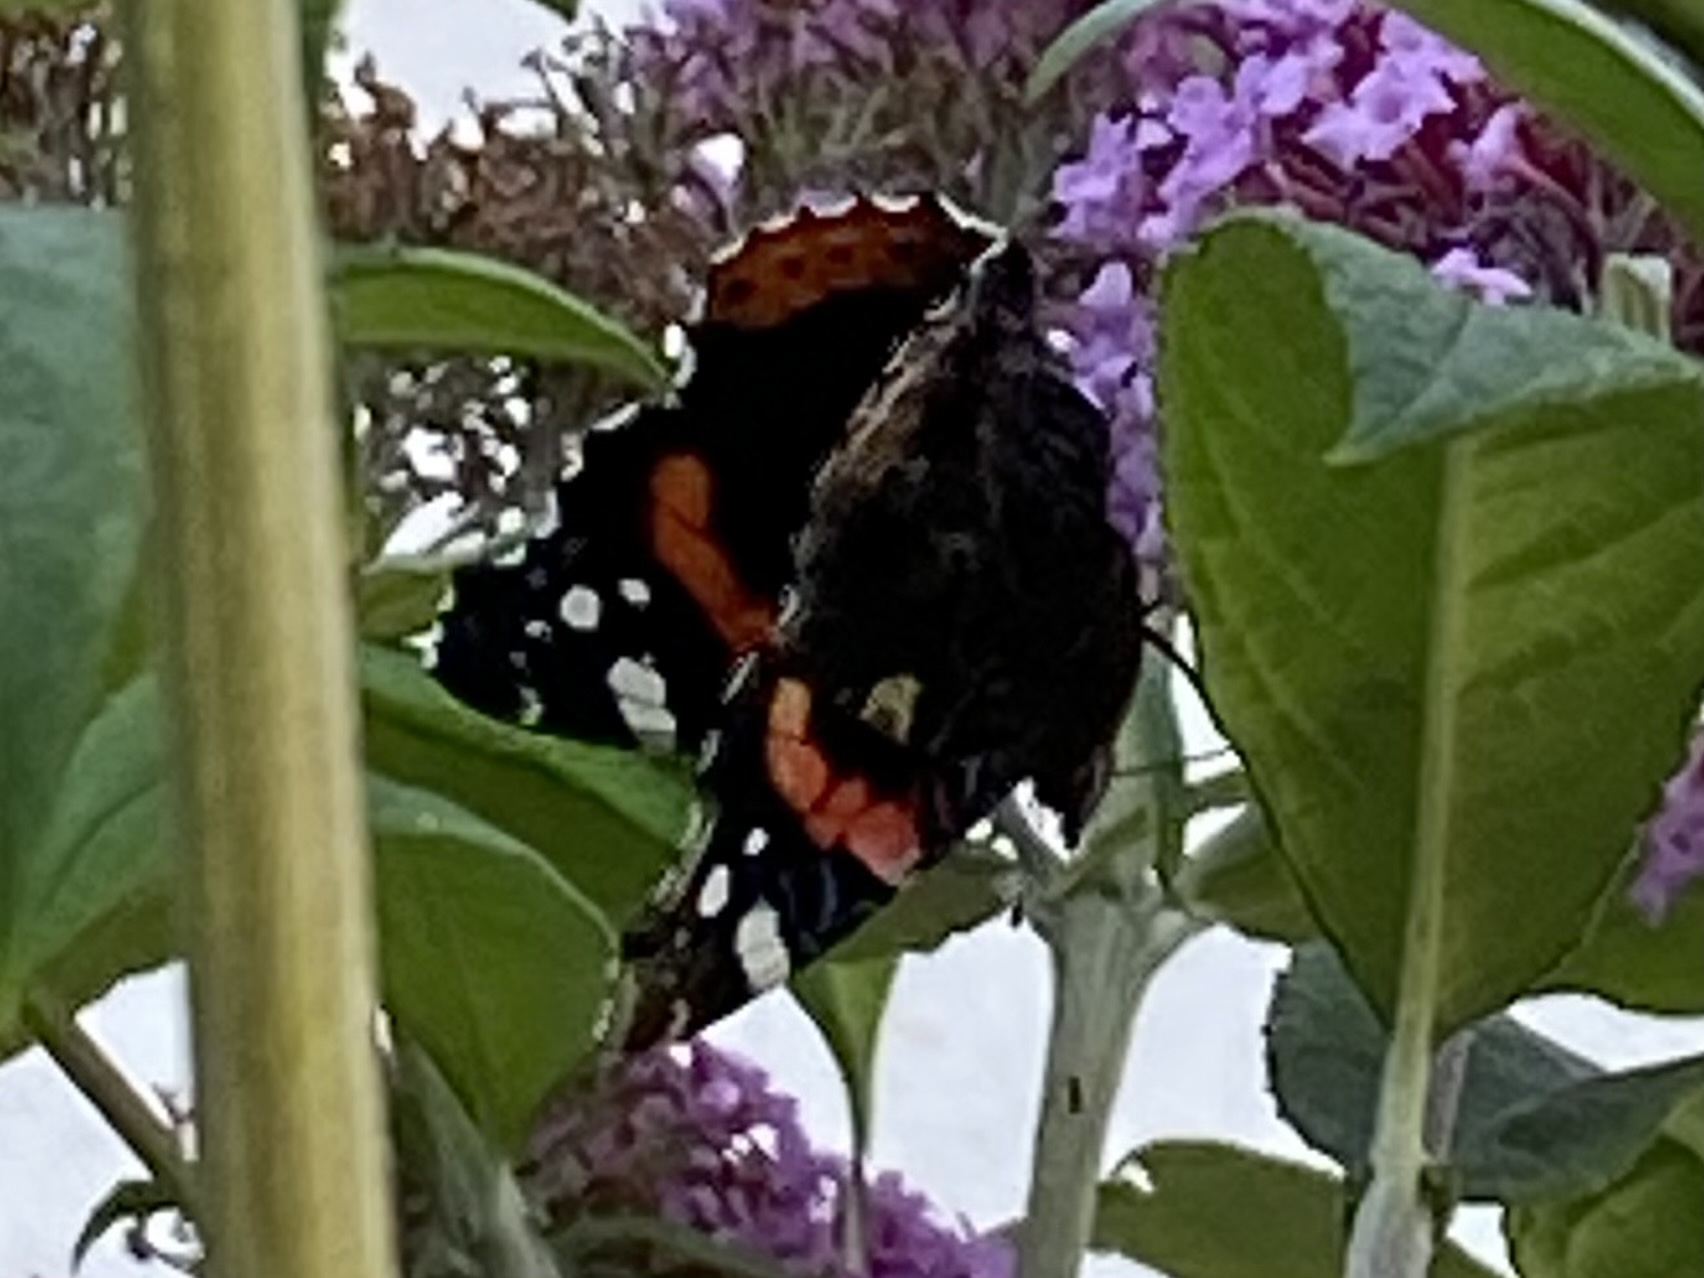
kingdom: Animalia
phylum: Arthropoda
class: Insecta
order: Lepidoptera
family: Nymphalidae
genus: Vanessa
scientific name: Vanessa atalanta
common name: Red admiral
